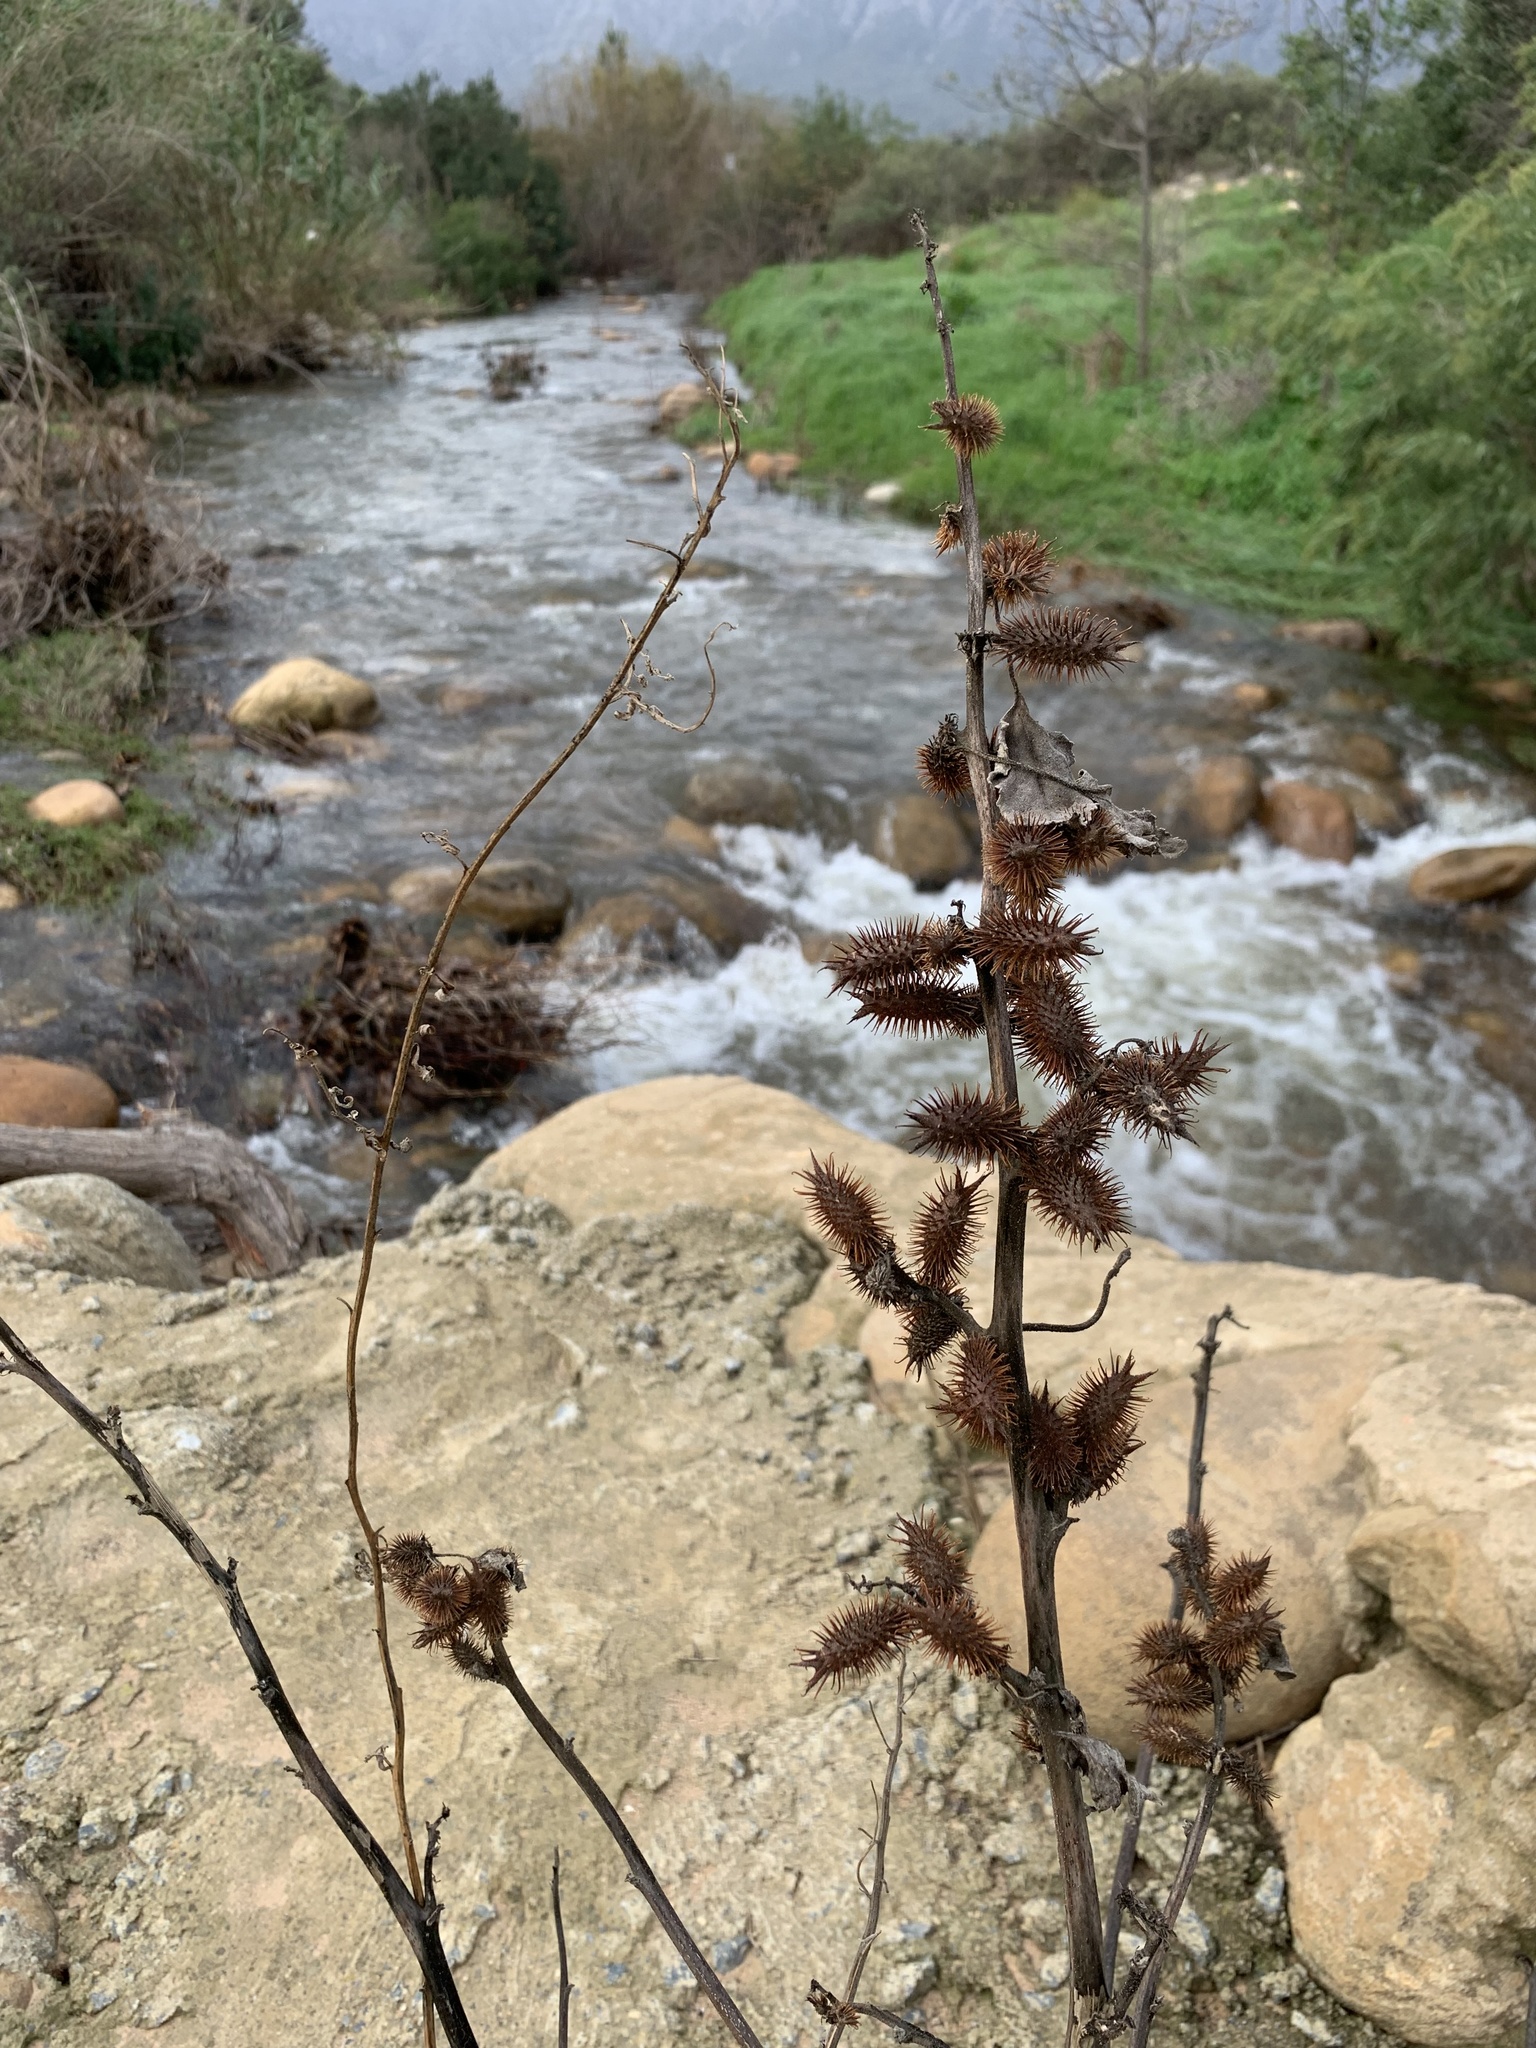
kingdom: Plantae
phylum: Tracheophyta
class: Magnoliopsida
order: Asterales
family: Asteraceae
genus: Xanthium
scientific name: Xanthium strumarium
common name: Rough cocklebur
